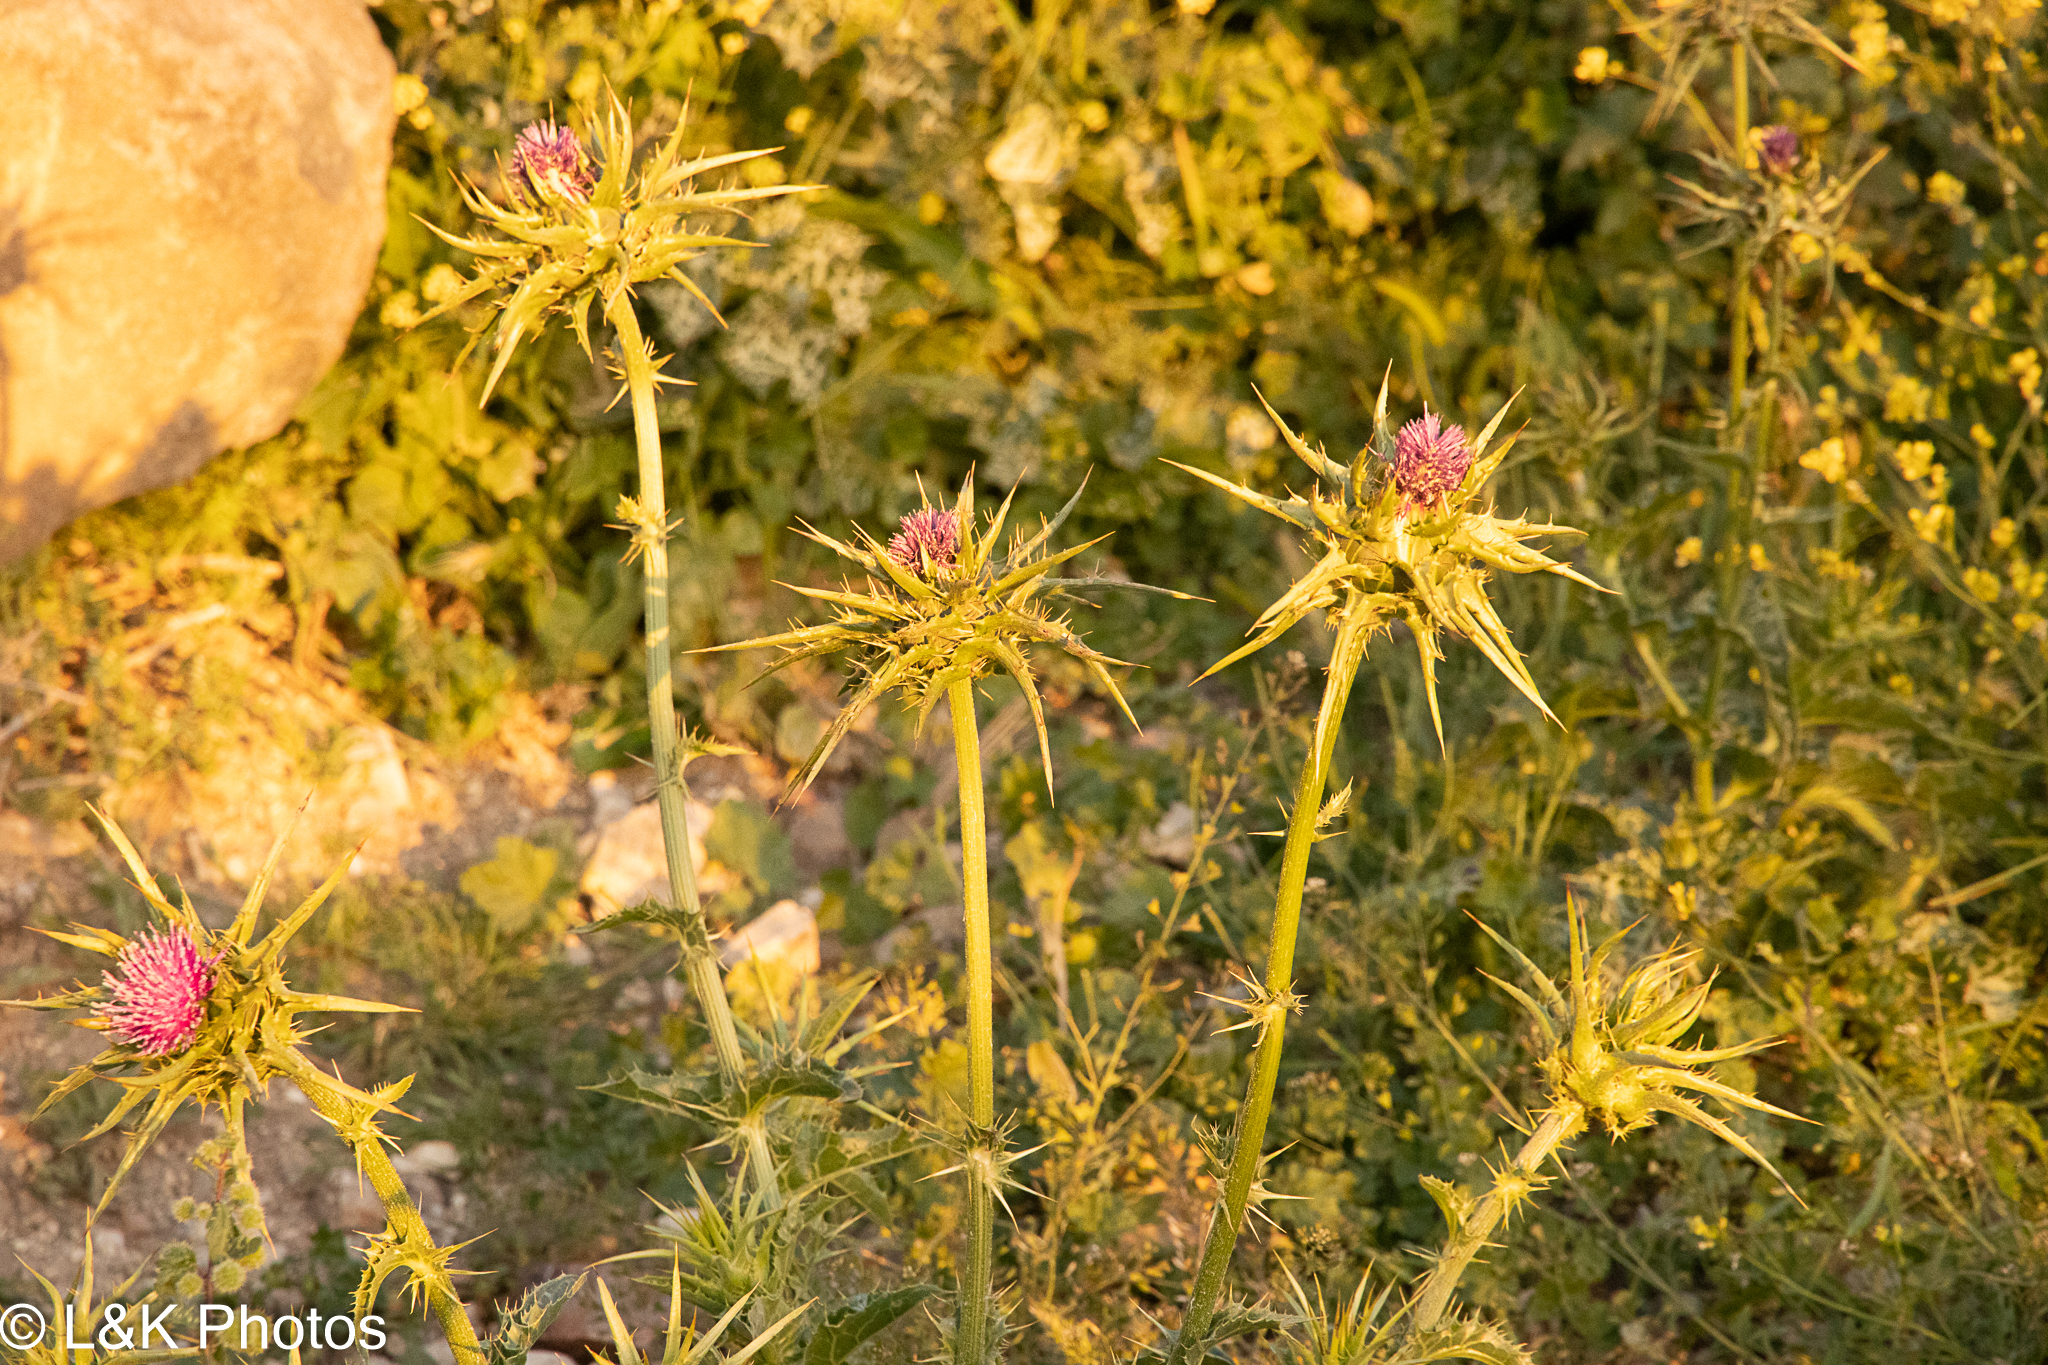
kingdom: Plantae
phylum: Tracheophyta
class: Magnoliopsida
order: Asterales
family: Asteraceae
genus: Silybum
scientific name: Silybum marianum
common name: Milk thistle
